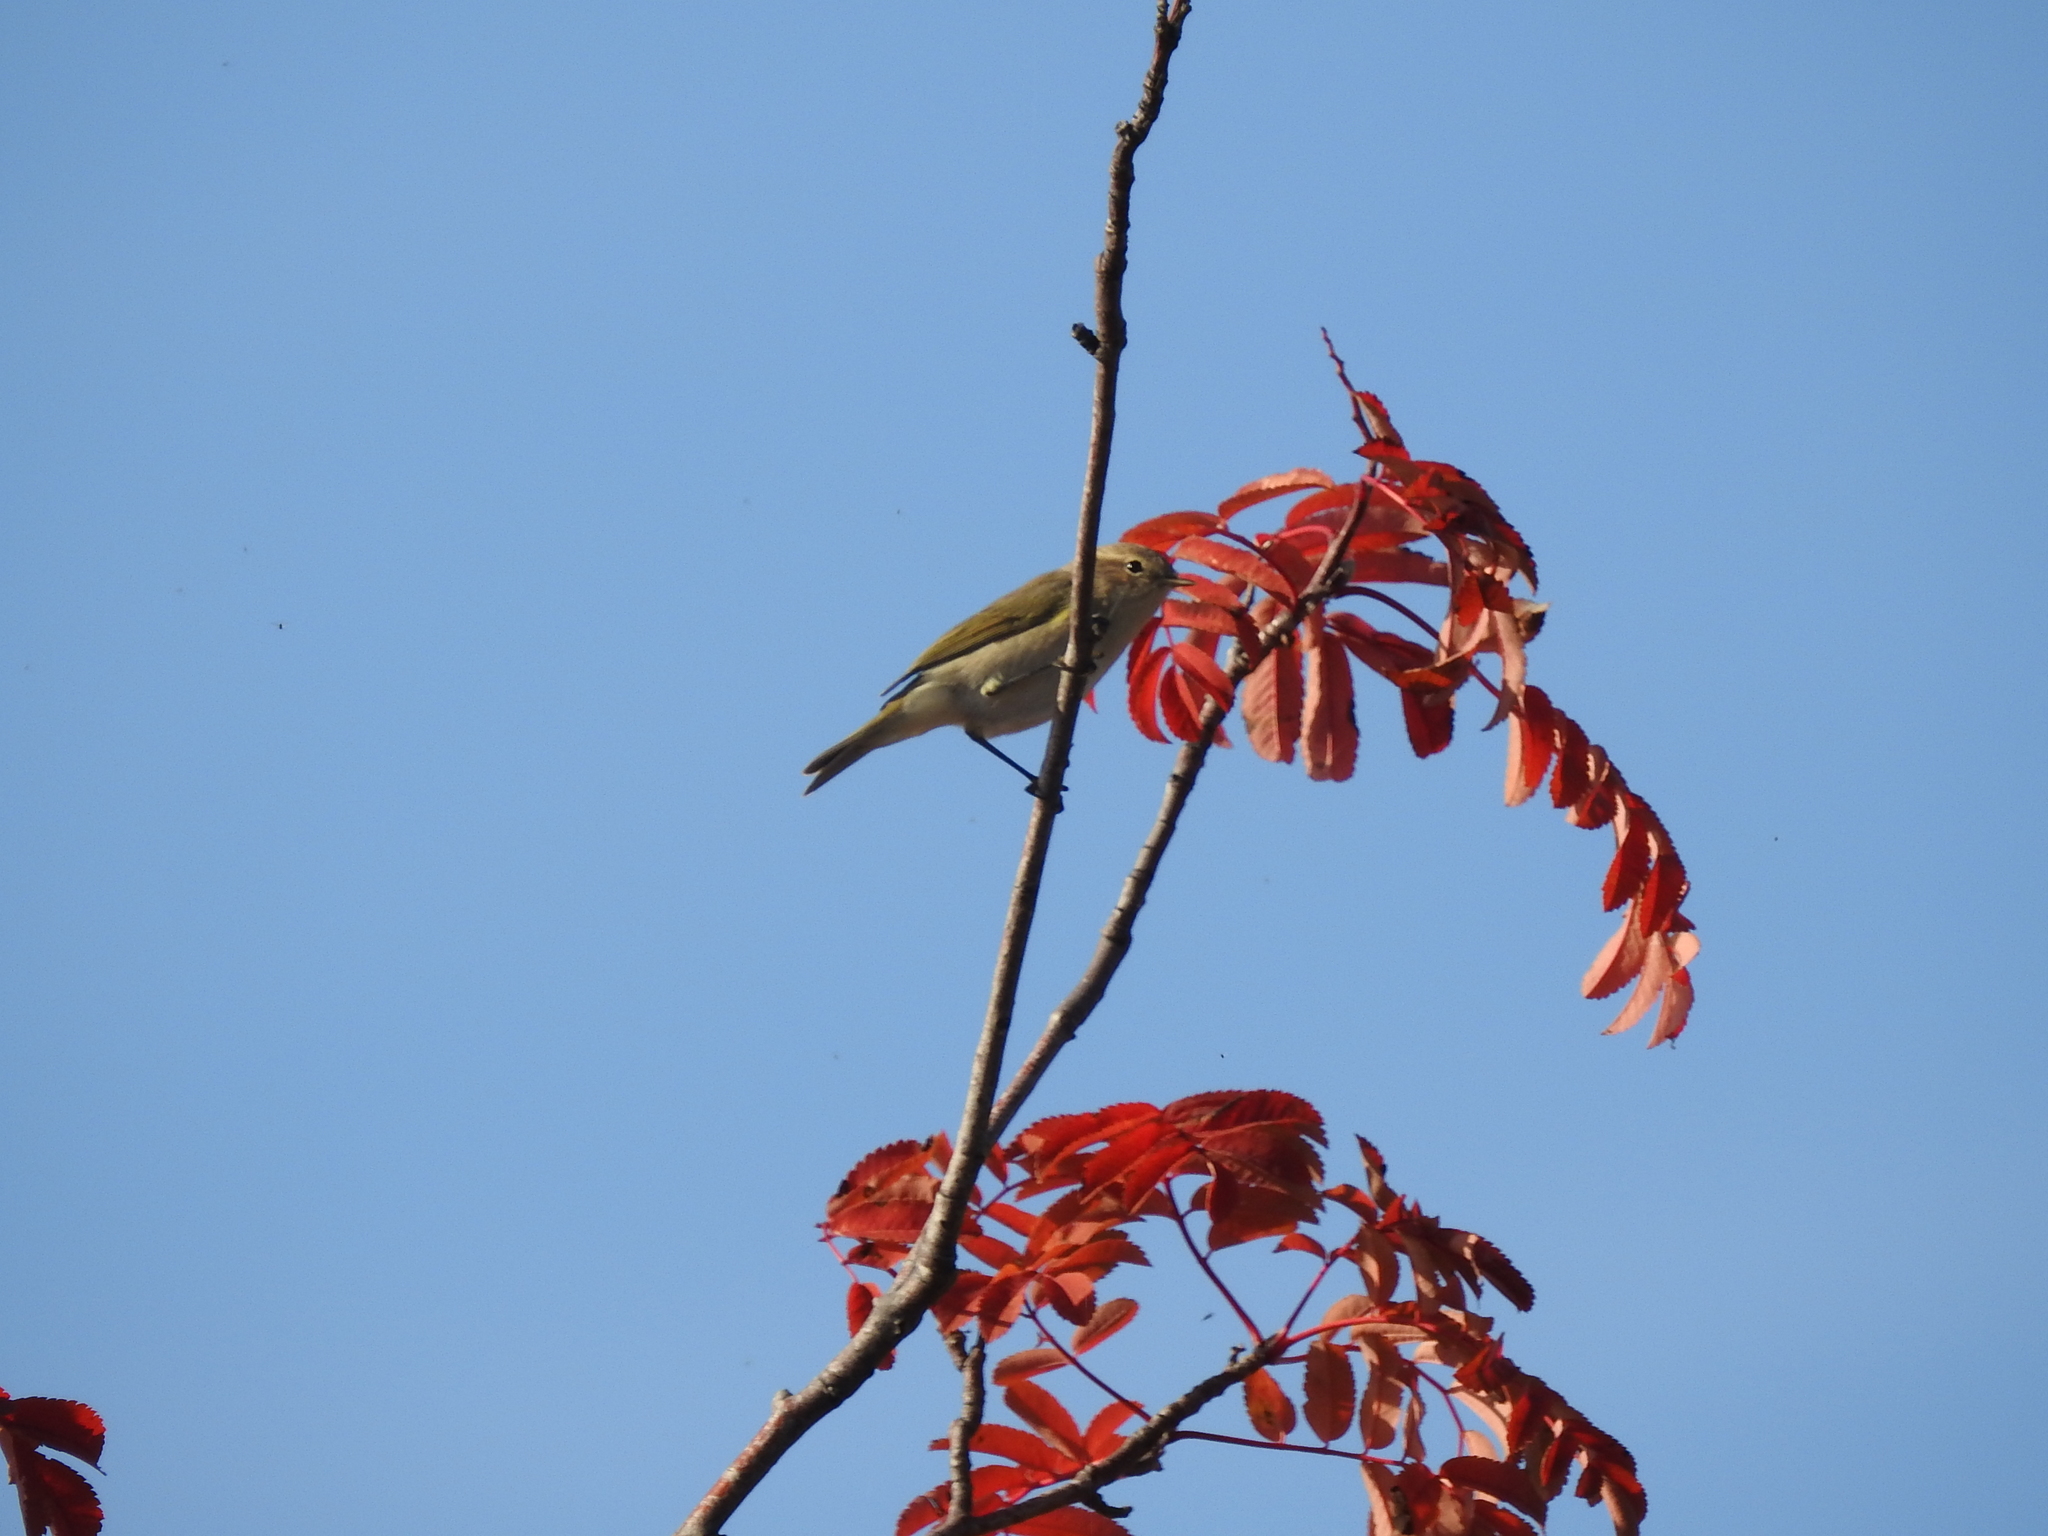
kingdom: Animalia
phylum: Chordata
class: Aves
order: Passeriformes
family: Phylloscopidae
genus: Phylloscopus
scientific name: Phylloscopus collybita
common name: Common chiffchaff
